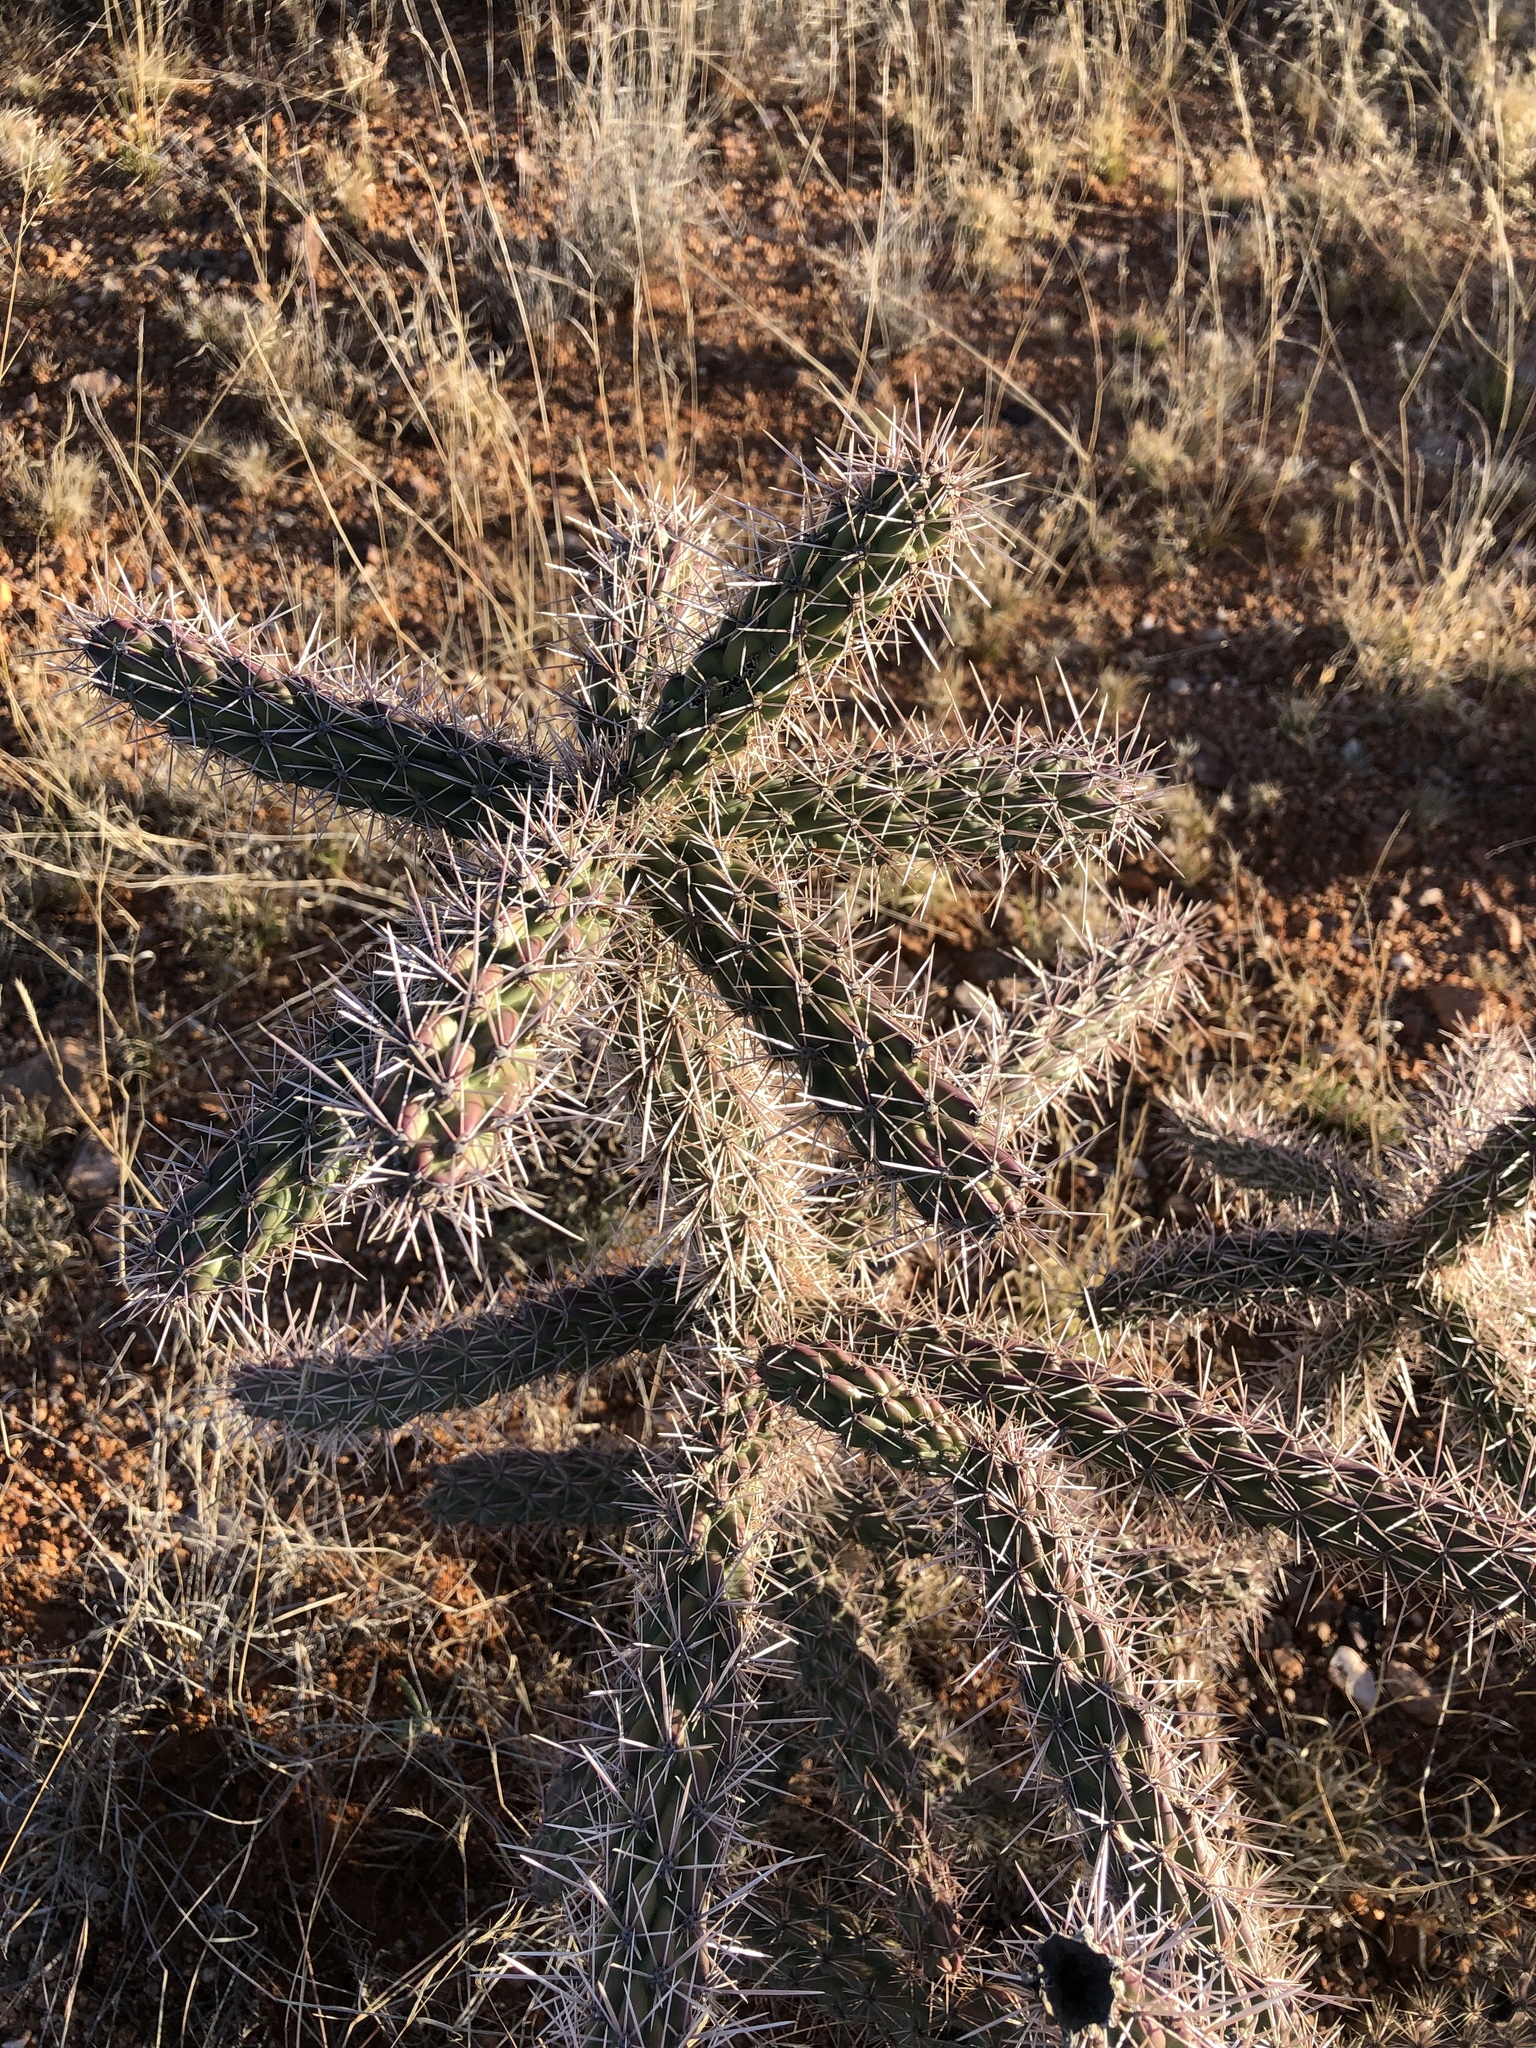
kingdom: Plantae
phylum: Tracheophyta
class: Magnoliopsida
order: Caryophyllales
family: Cactaceae
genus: Cylindropuntia
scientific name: Cylindropuntia imbricata
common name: Candelabrum cactus
